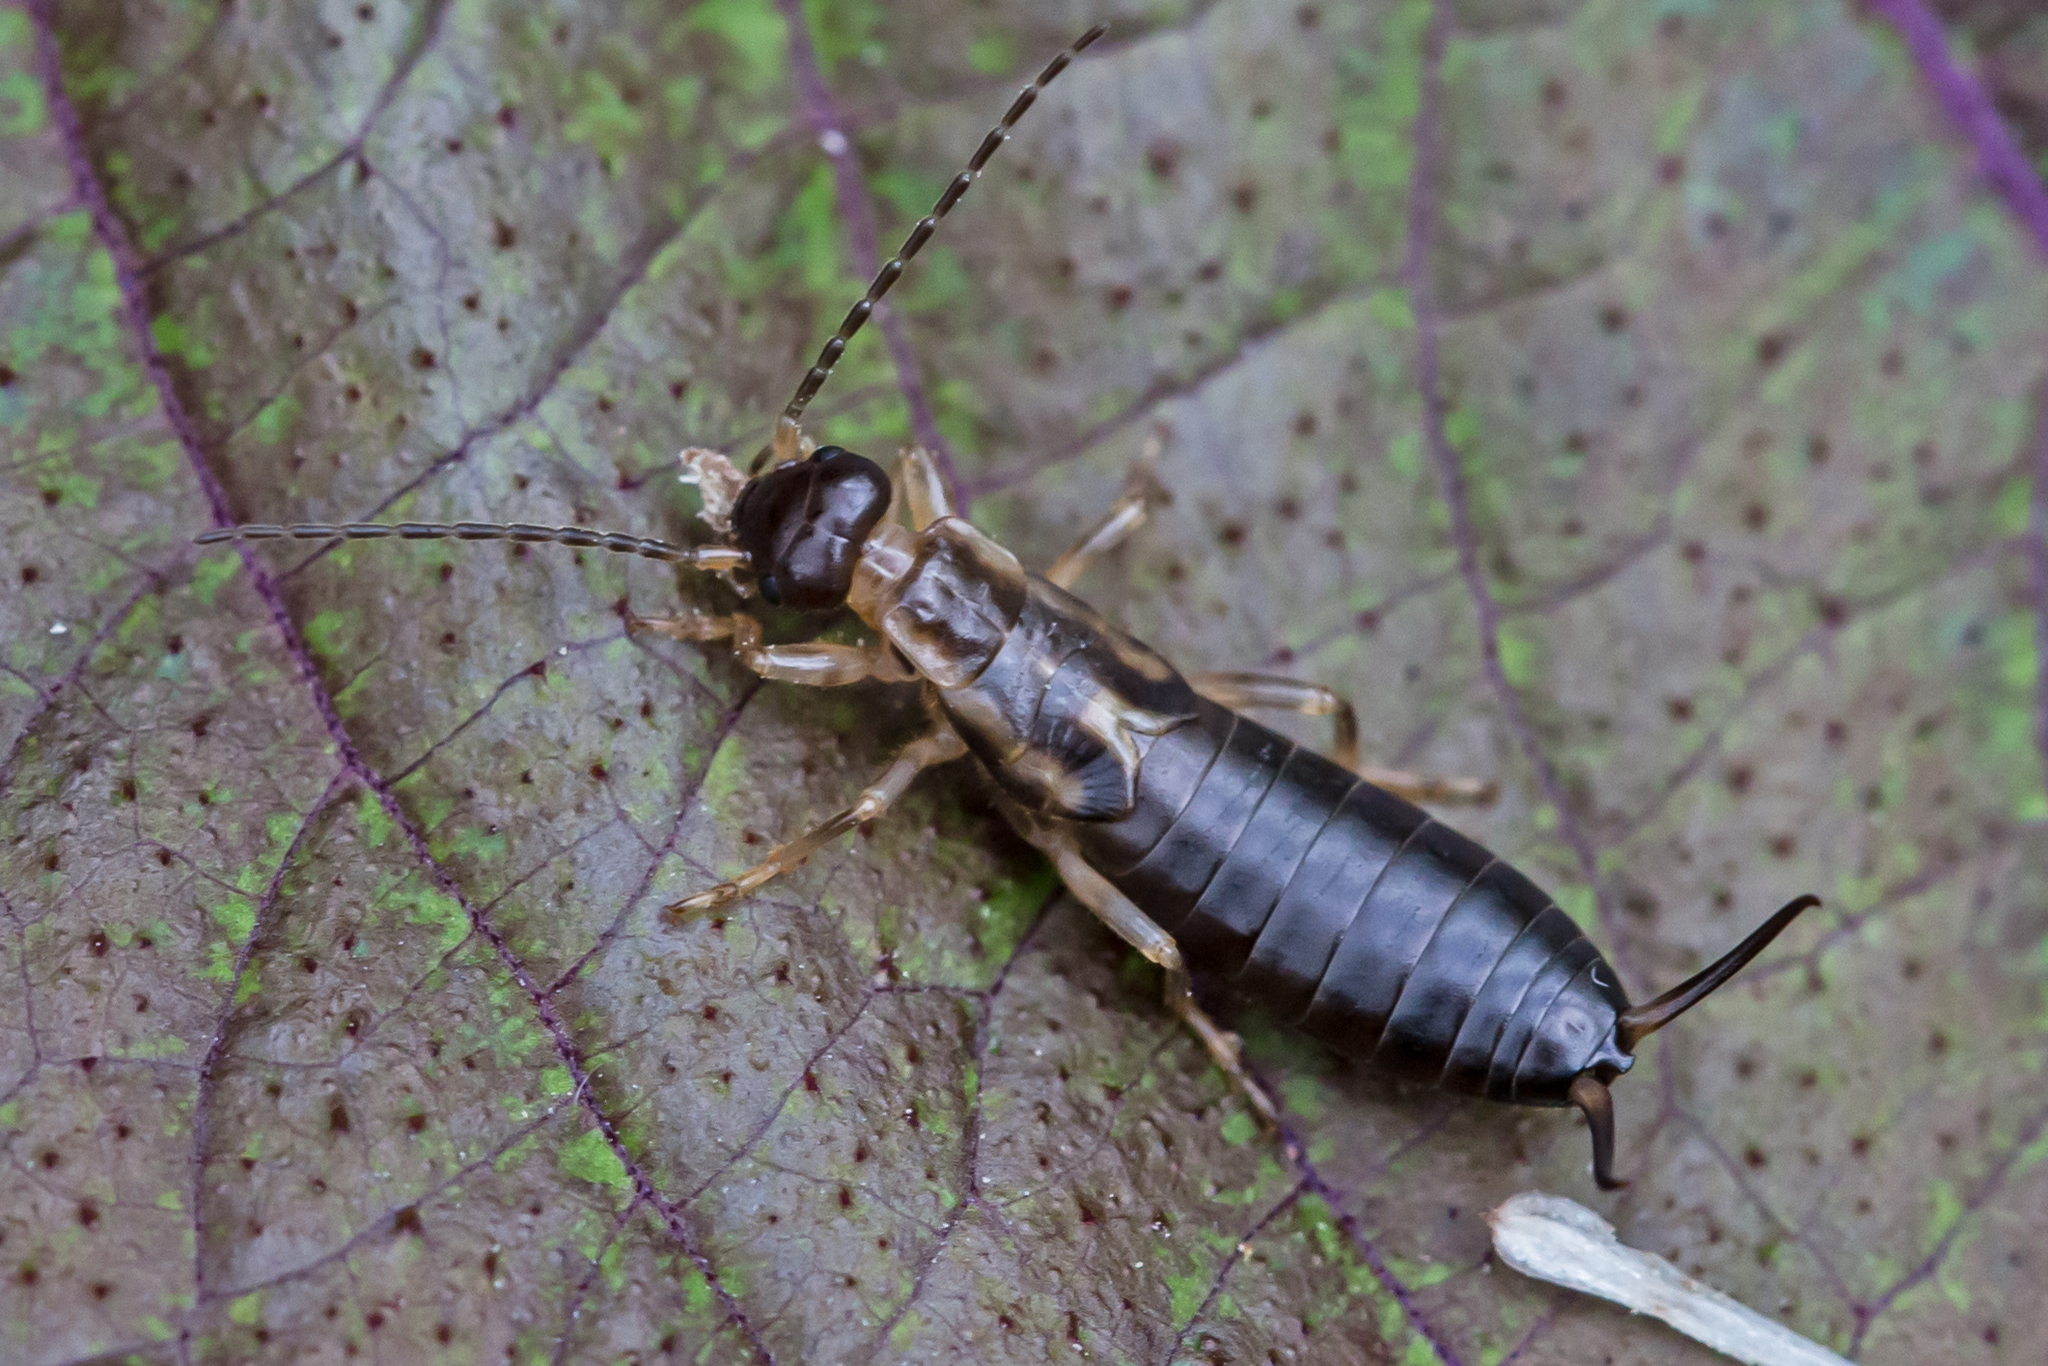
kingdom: Animalia
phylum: Arthropoda
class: Insecta
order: Dermaptera
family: Forficulidae
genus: Forficula
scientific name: Forficula
